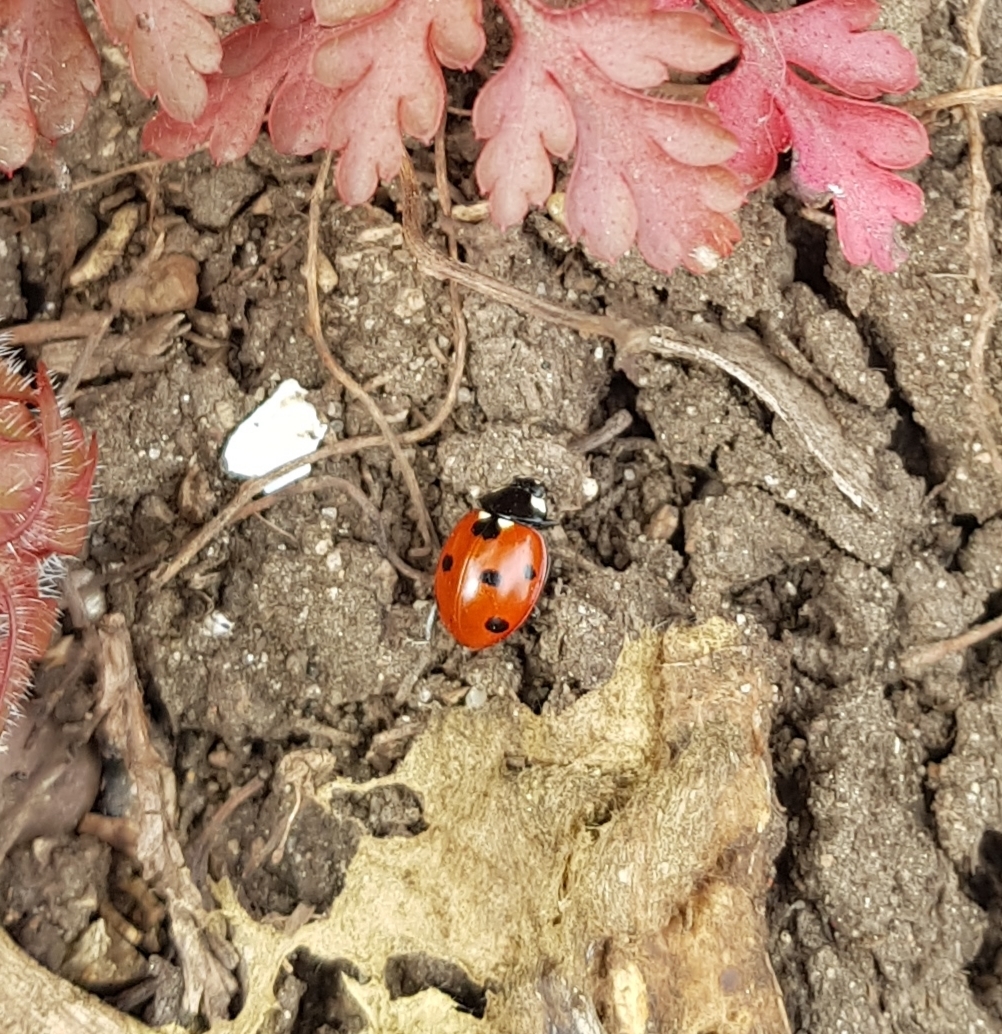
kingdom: Animalia
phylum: Arthropoda
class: Insecta
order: Coleoptera
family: Coccinellidae
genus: Coccinella
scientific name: Coccinella septempunctata
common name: Sevenspotted lady beetle
